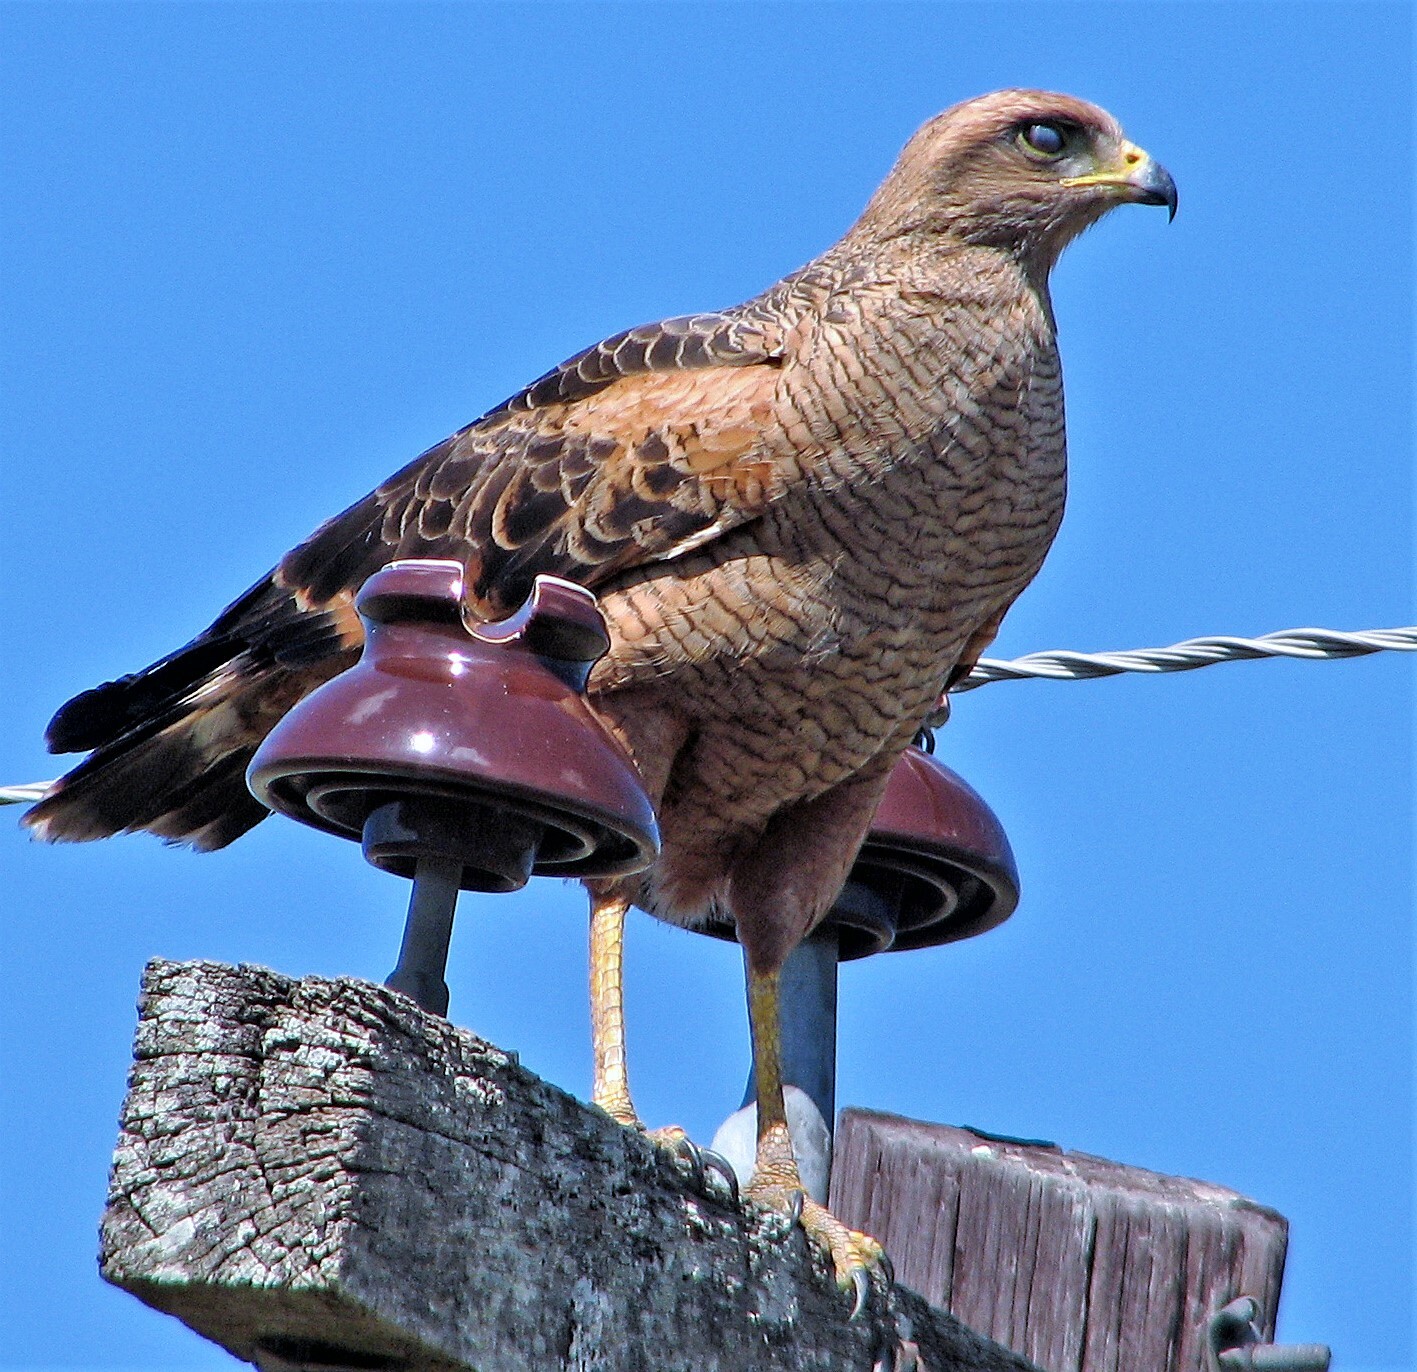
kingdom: Animalia
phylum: Chordata
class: Aves
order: Accipitriformes
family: Accipitridae
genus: Buteogallus
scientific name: Buteogallus meridionalis
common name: Savanna hawk
